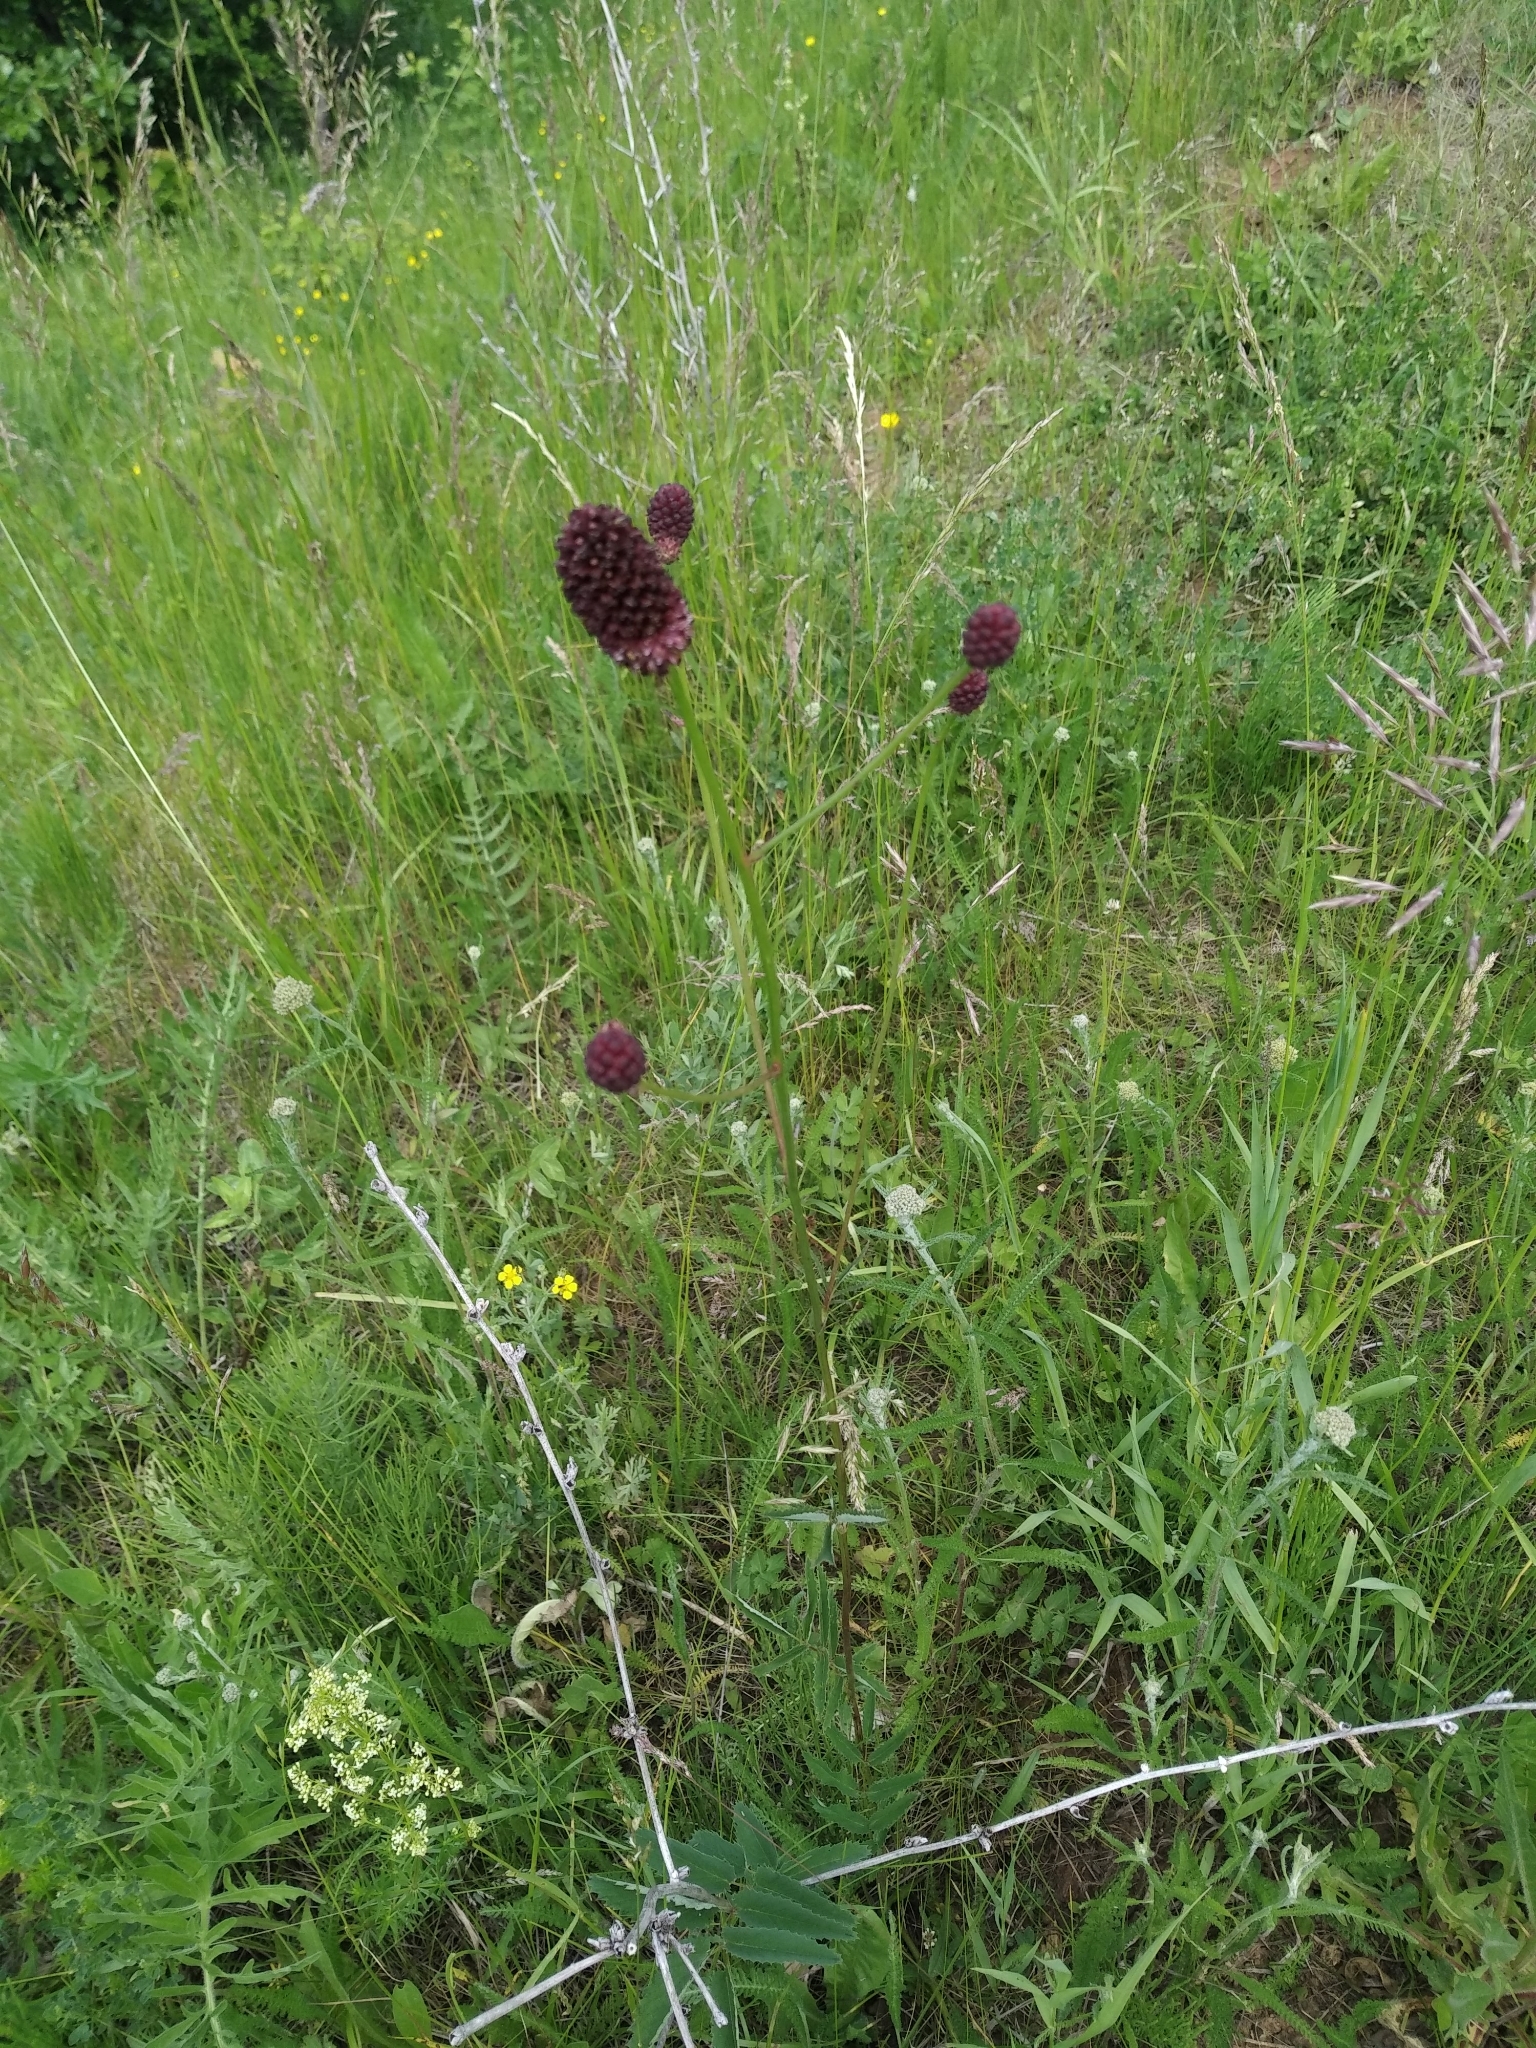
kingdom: Plantae
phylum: Tracheophyta
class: Magnoliopsida
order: Rosales
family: Rosaceae
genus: Sanguisorba
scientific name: Sanguisorba officinalis
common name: Great burnet
